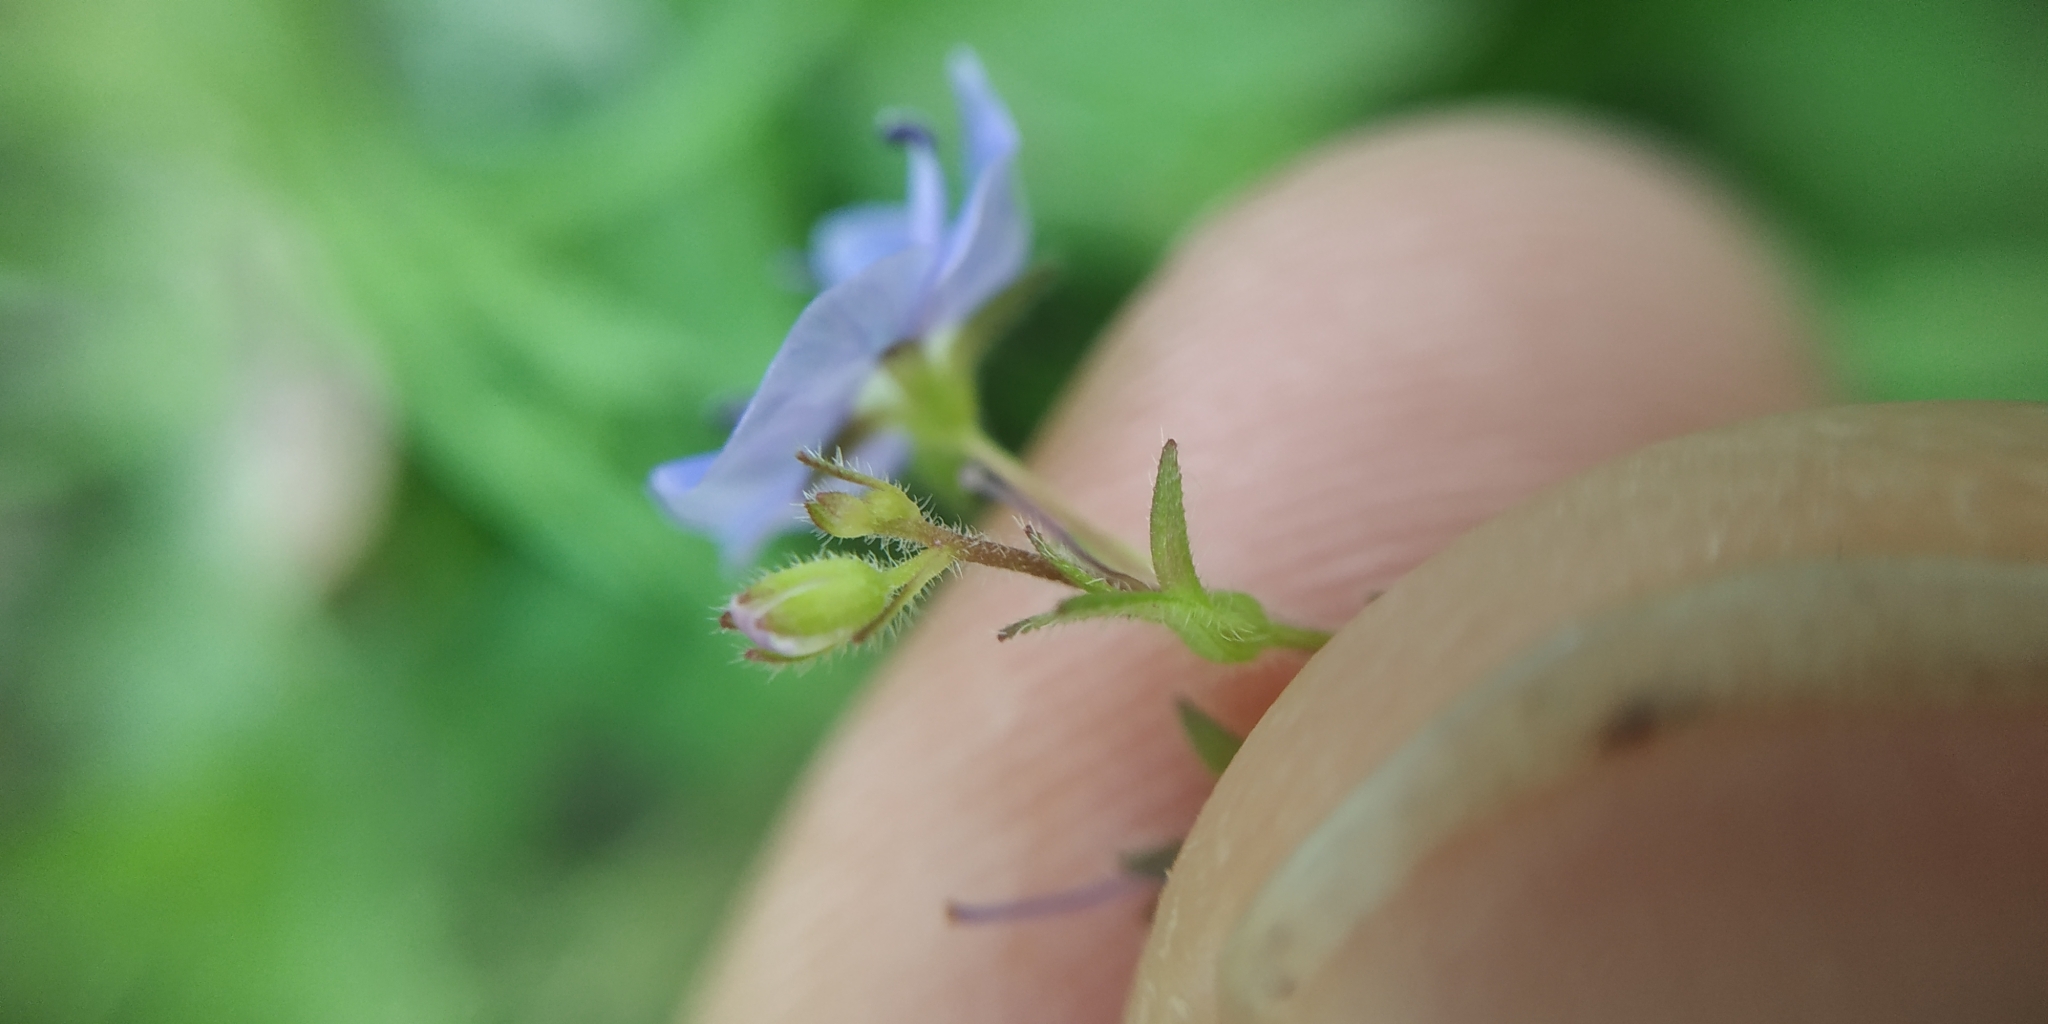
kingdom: Plantae
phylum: Tracheophyta
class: Magnoliopsida
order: Lamiales
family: Plantaginaceae
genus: Veronica
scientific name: Veronica chamaedrys
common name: Germander speedwell
